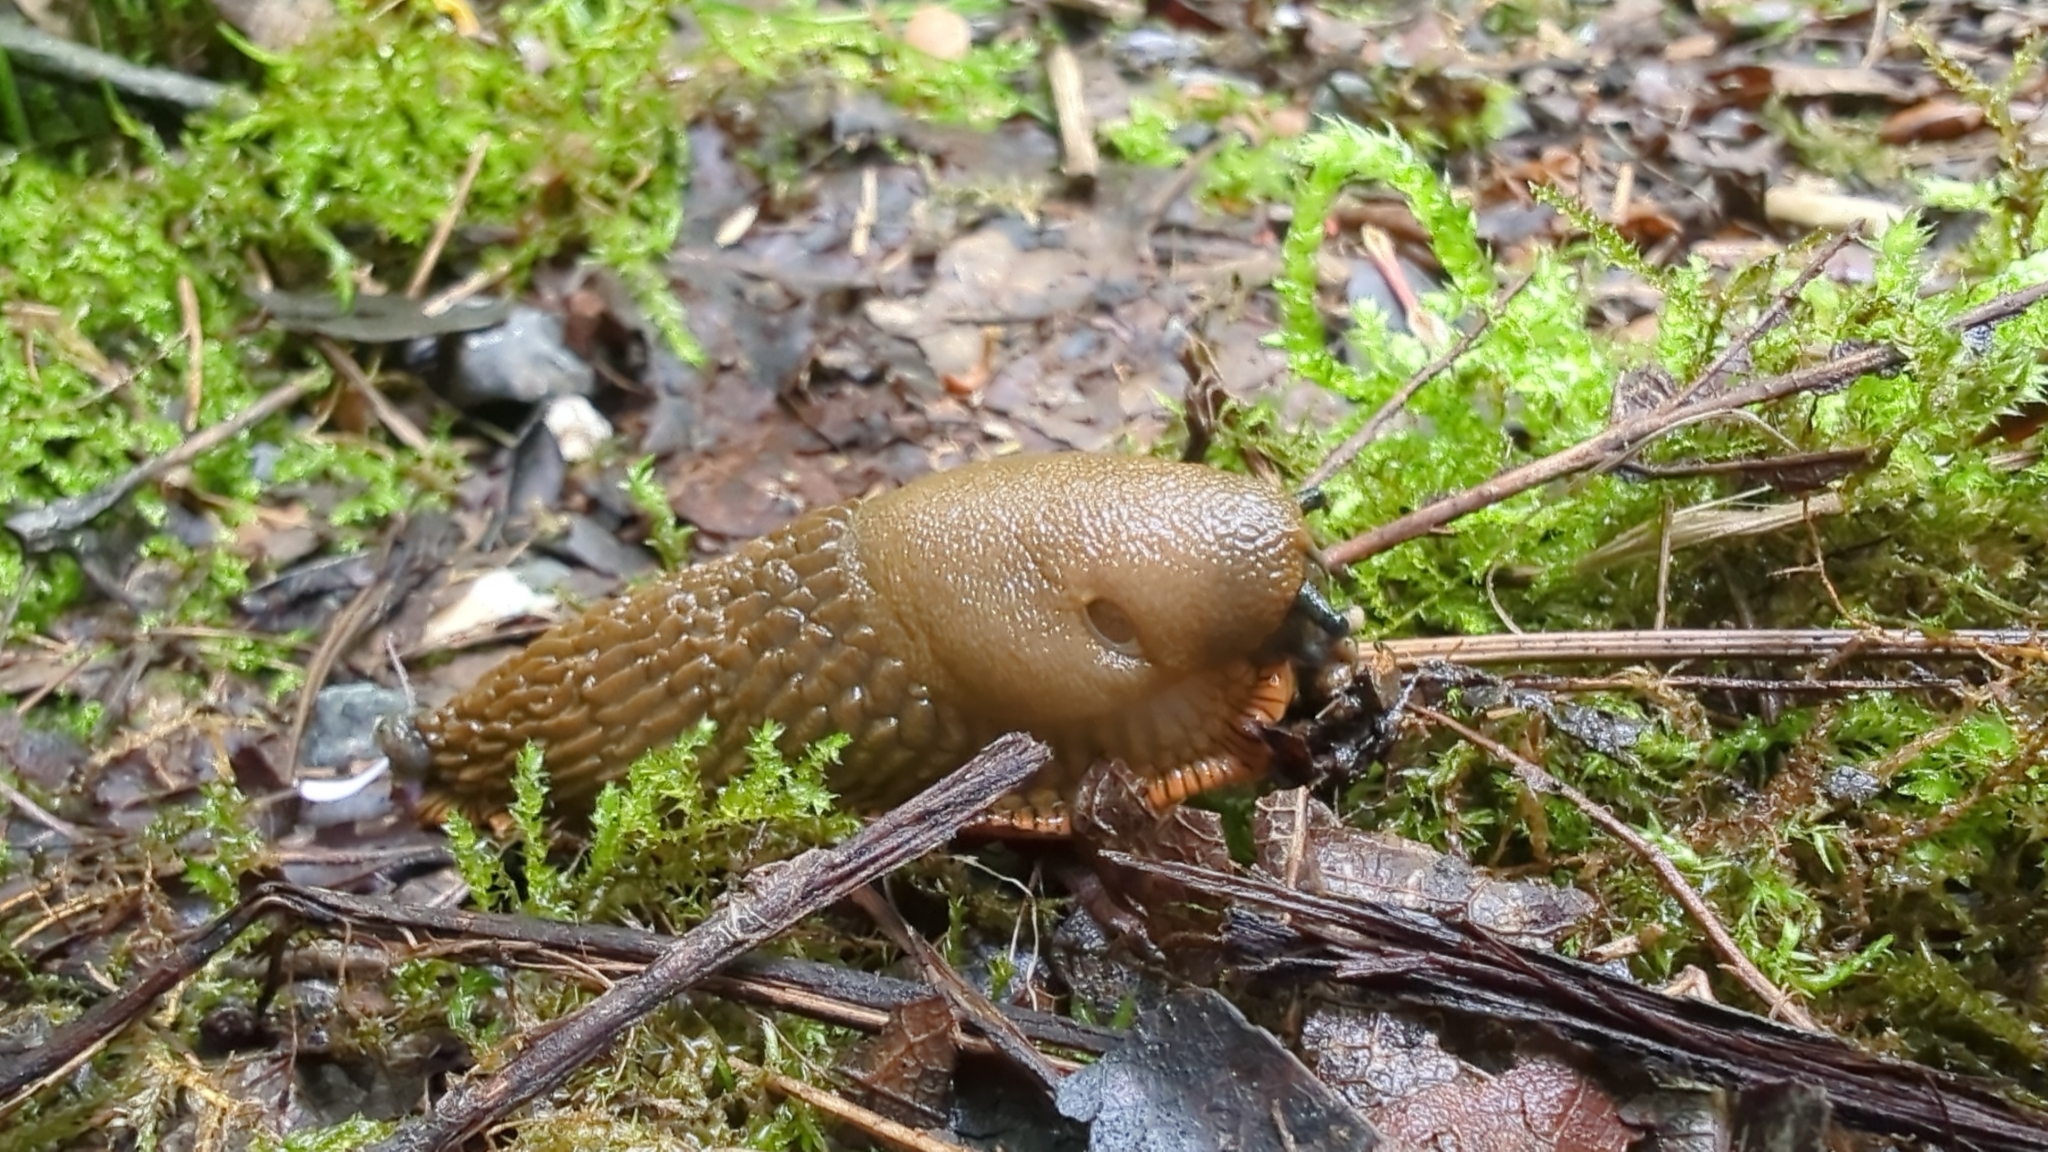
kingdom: Animalia
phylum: Mollusca
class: Gastropoda
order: Stylommatophora
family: Arionidae
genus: Arion
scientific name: Arion
